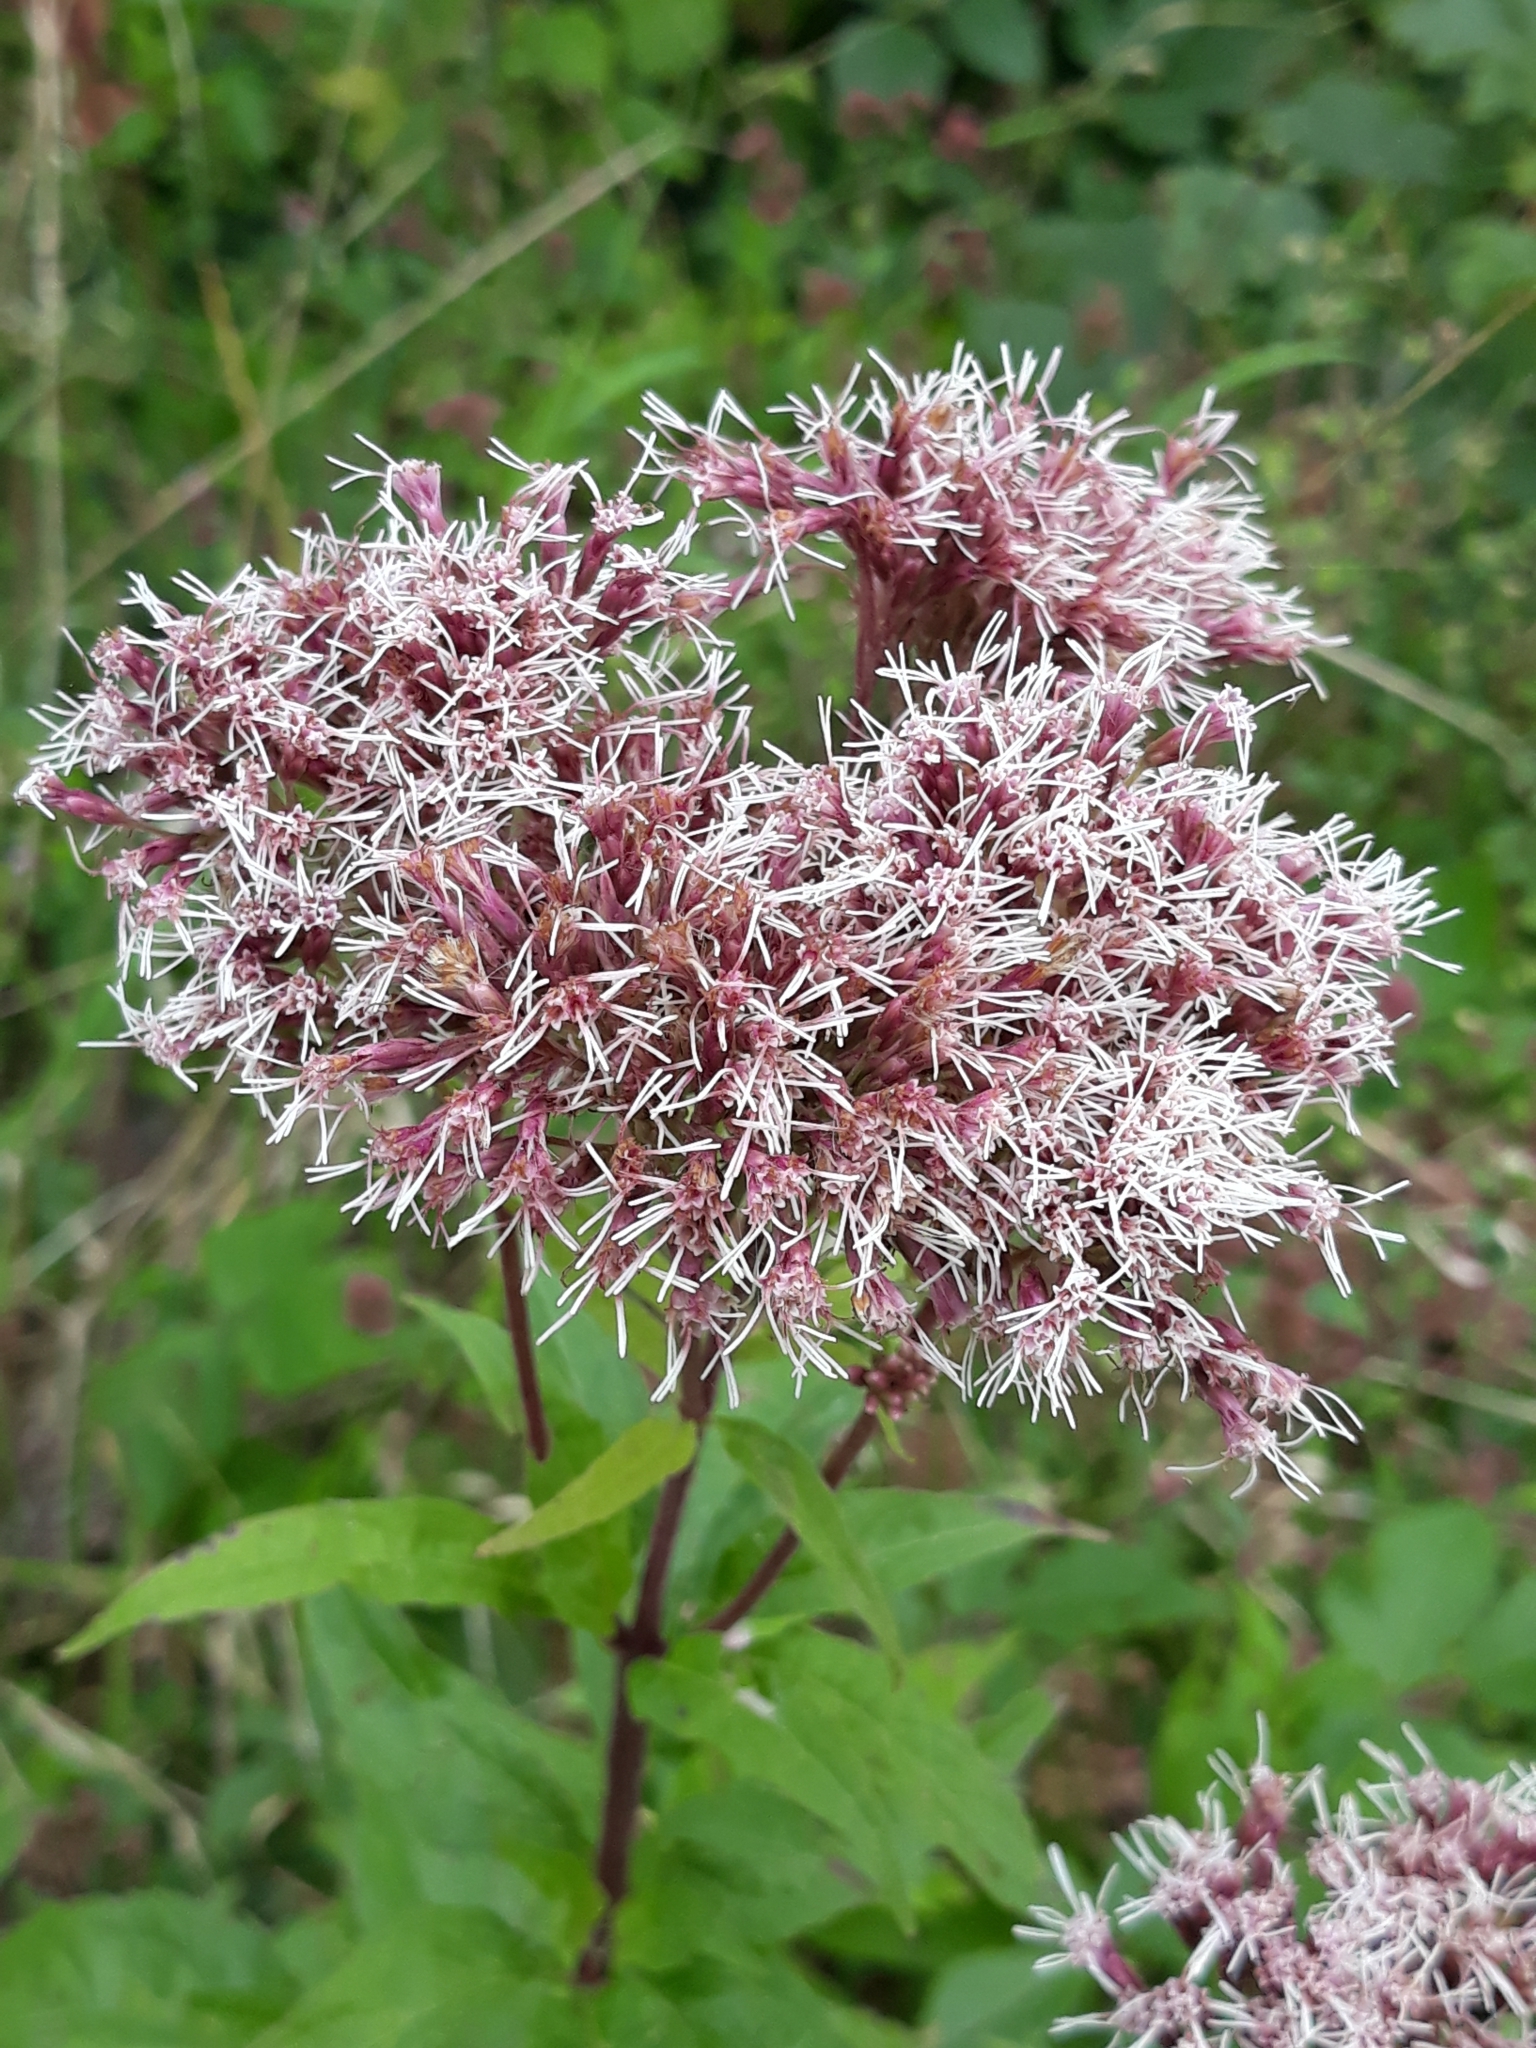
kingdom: Plantae
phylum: Tracheophyta
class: Magnoliopsida
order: Asterales
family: Asteraceae
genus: Eupatorium
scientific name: Eupatorium cannabinum
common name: Hemp-agrimony
